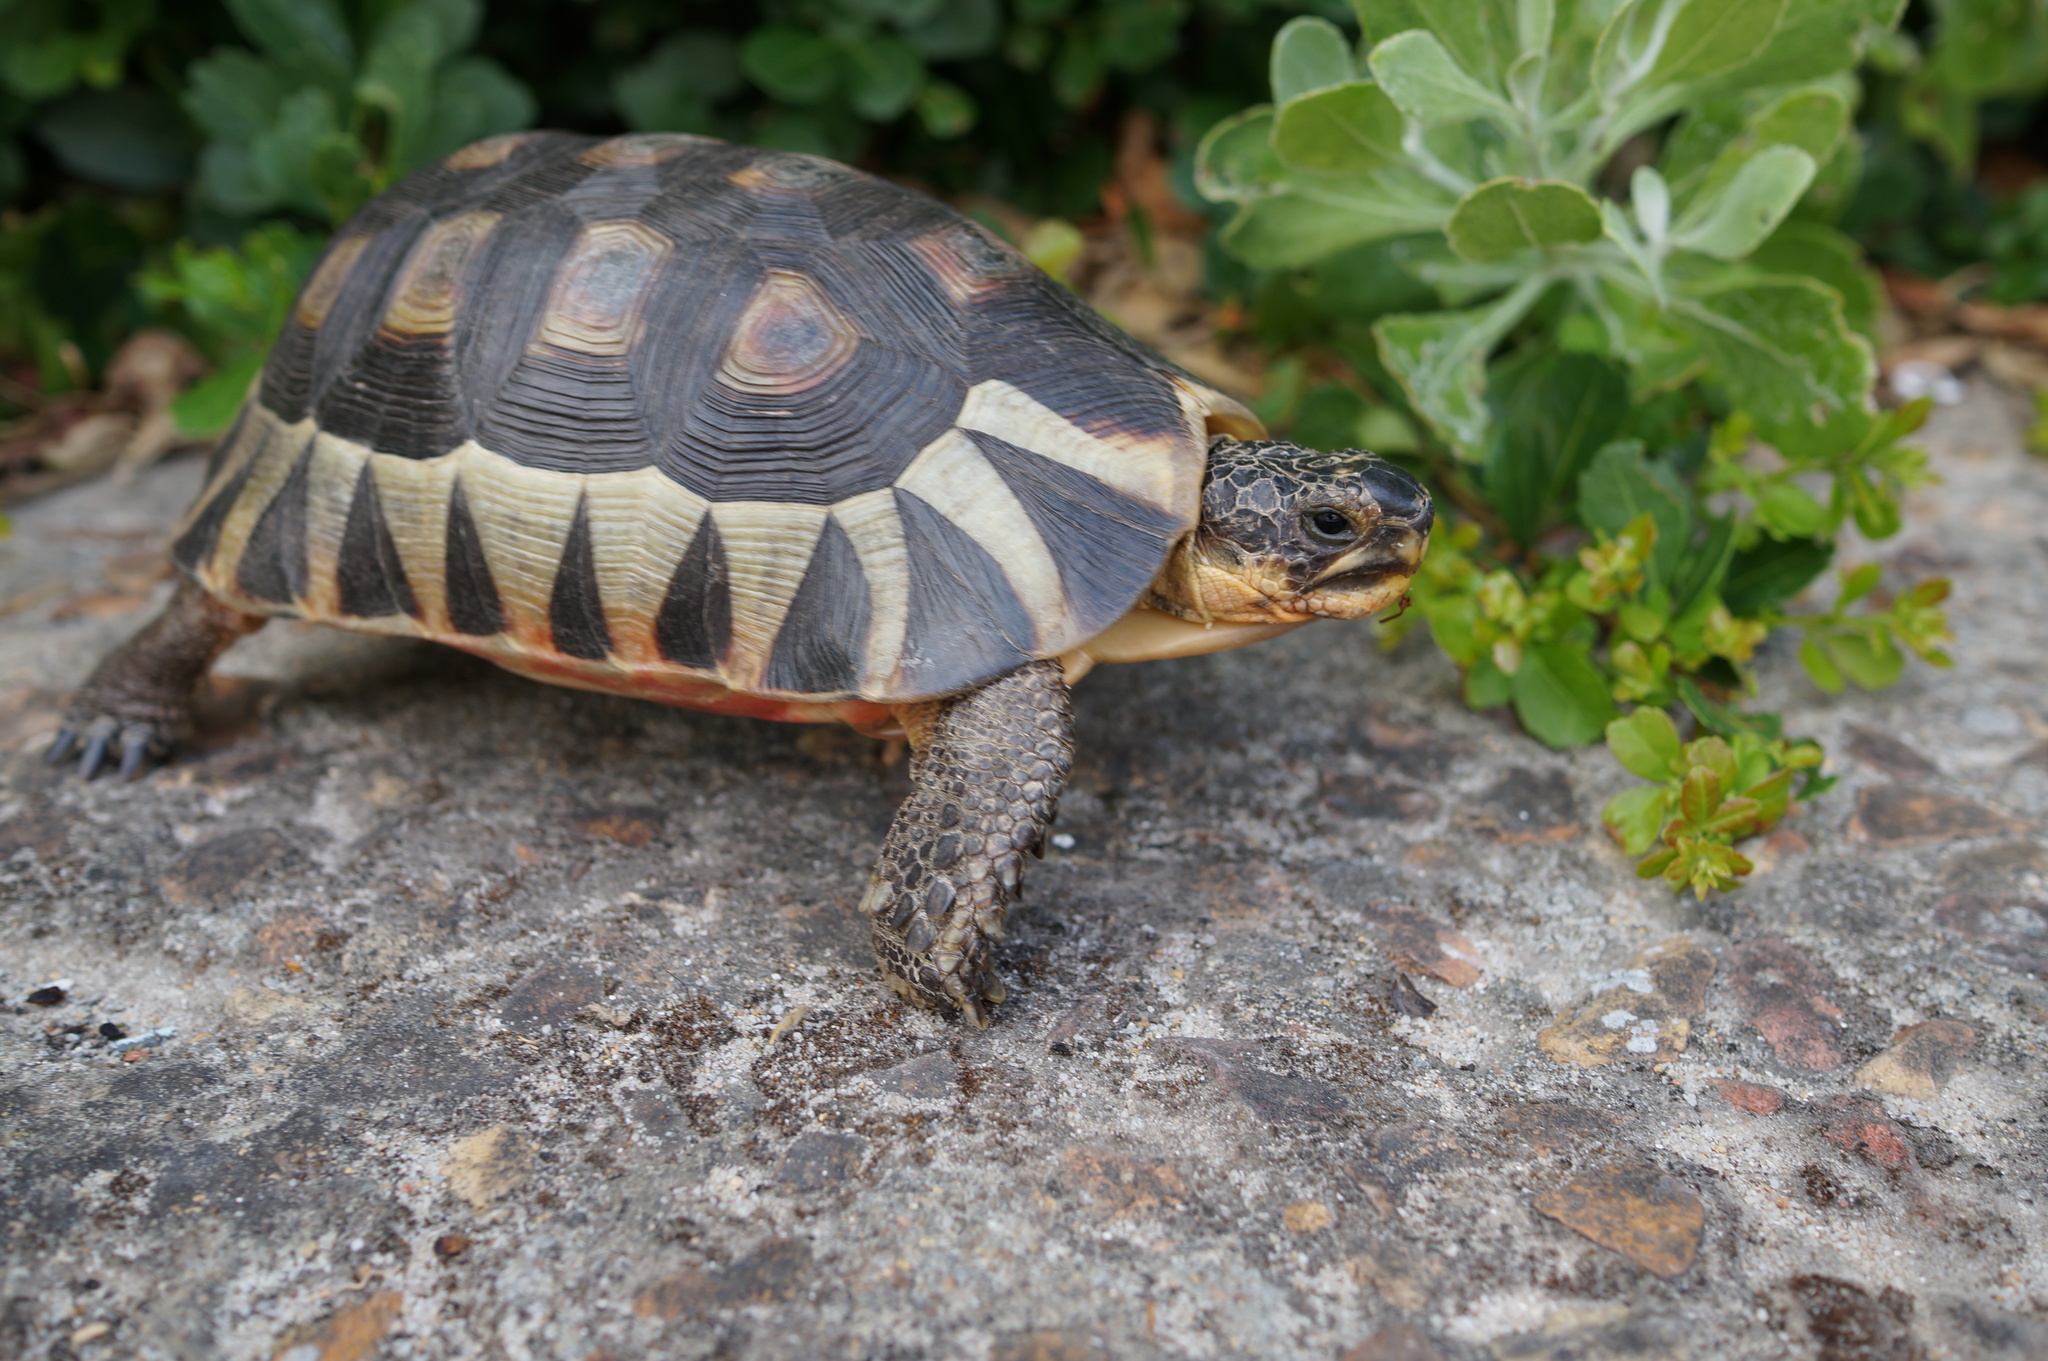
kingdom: Animalia
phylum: Chordata
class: Testudines
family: Testudinidae
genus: Chersina
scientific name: Chersina angulata
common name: South african bowsprit tortoise
